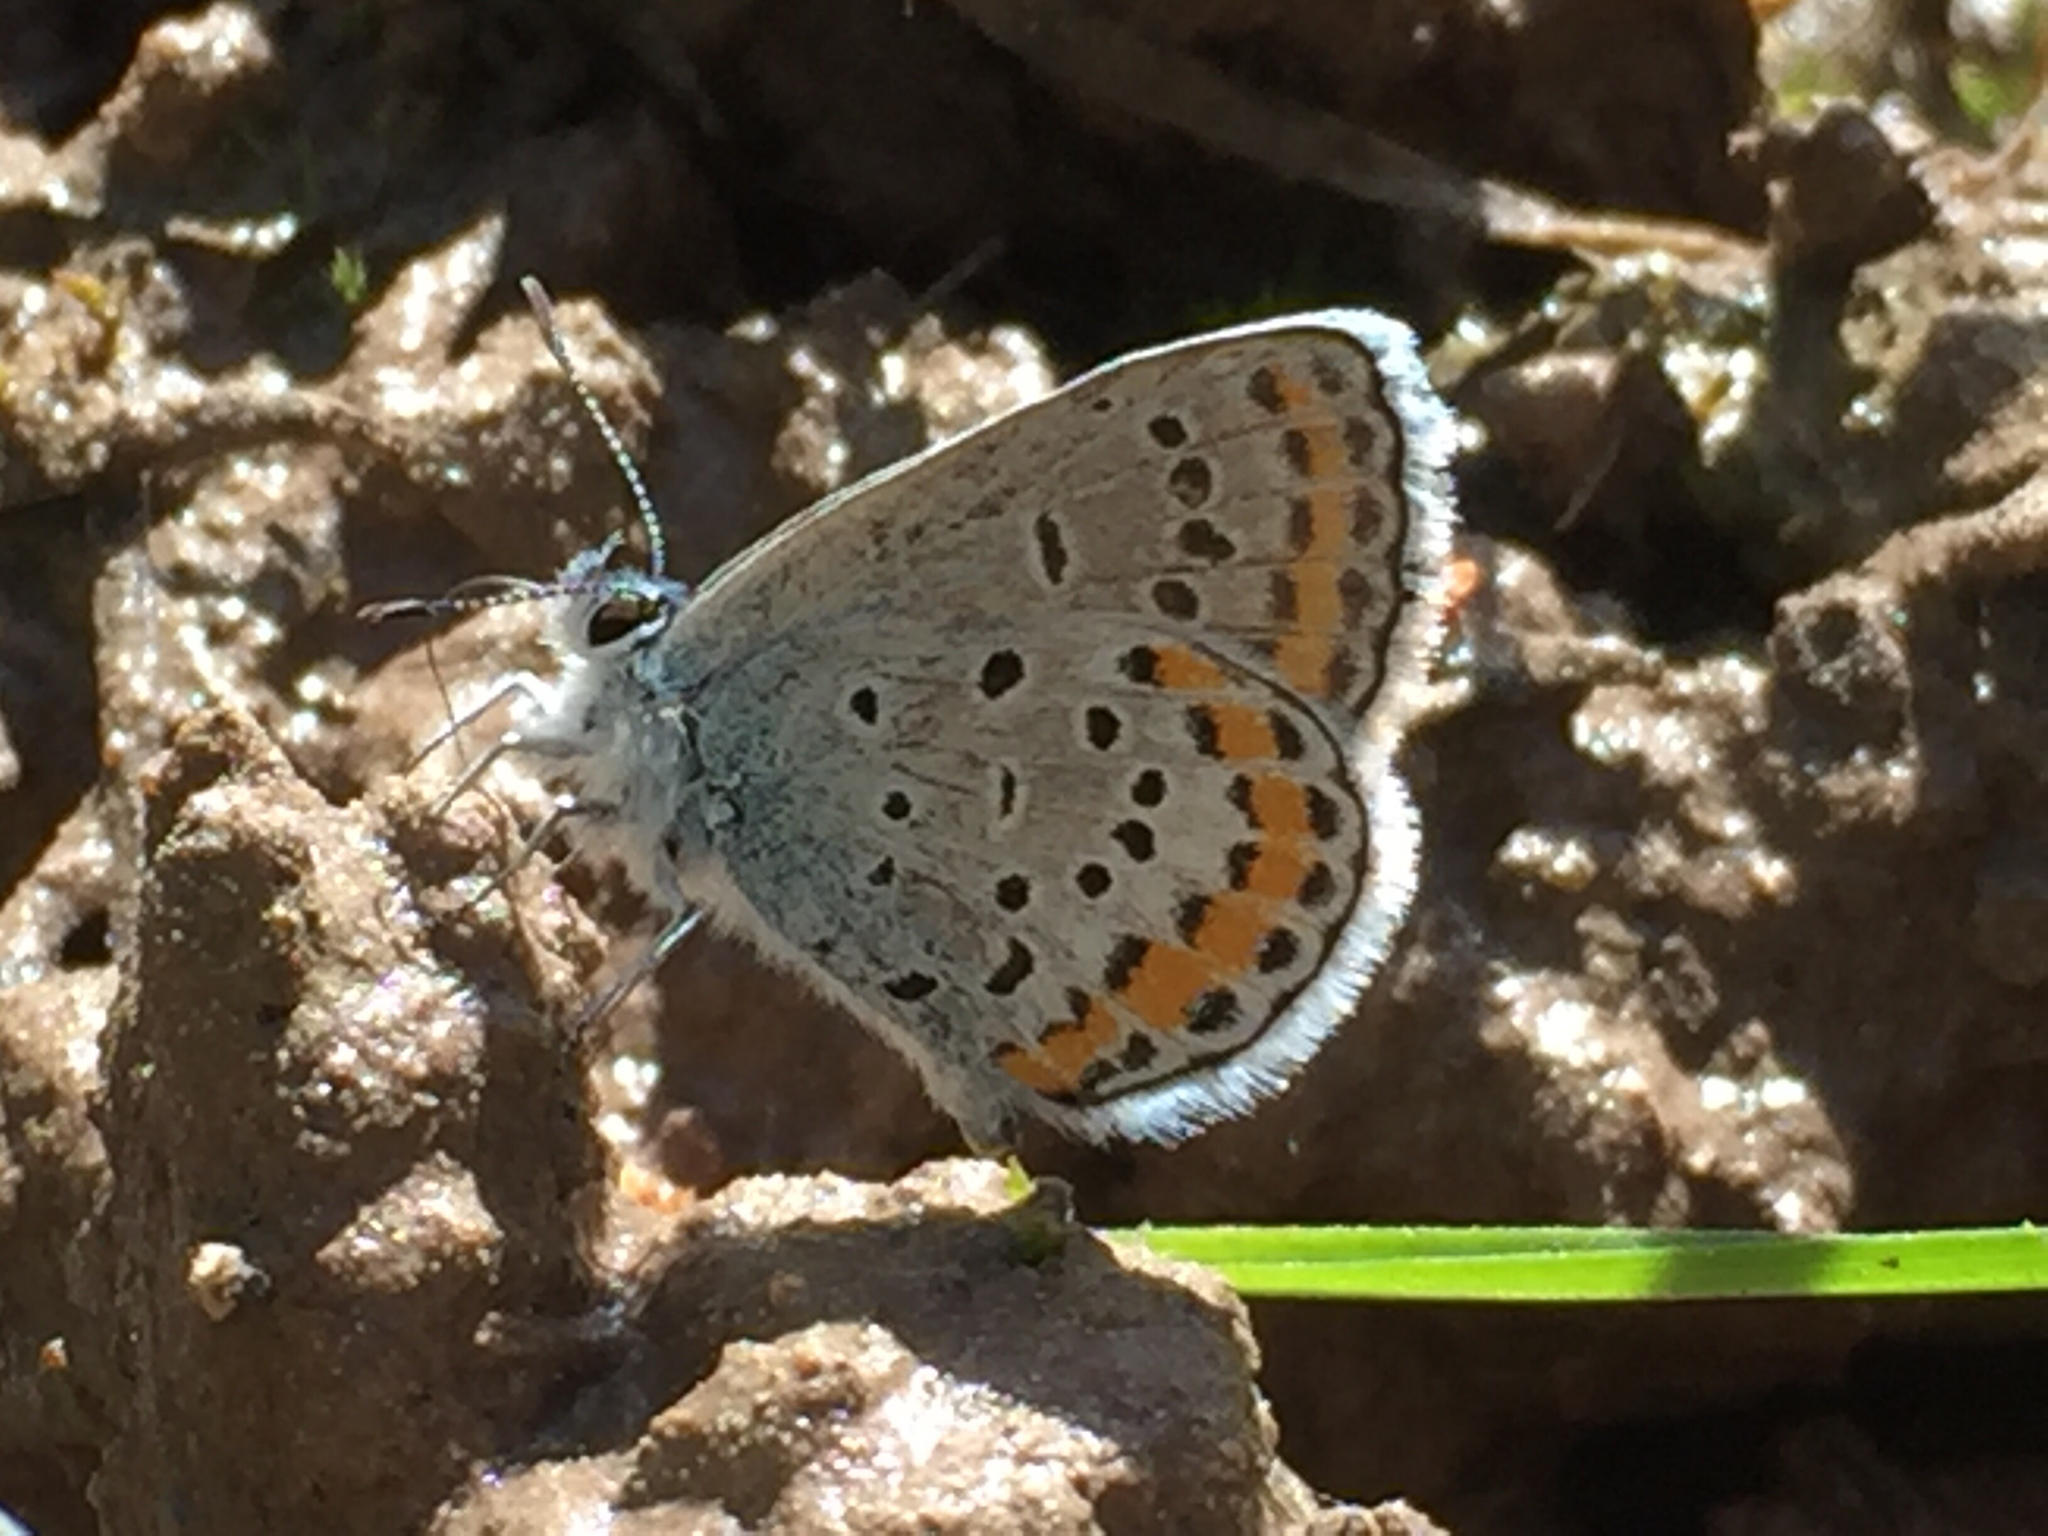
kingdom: Animalia
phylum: Arthropoda
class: Insecta
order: Lepidoptera
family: Lycaenidae
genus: Lycaeides
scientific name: Lycaeides melissa
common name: Melissa blue
